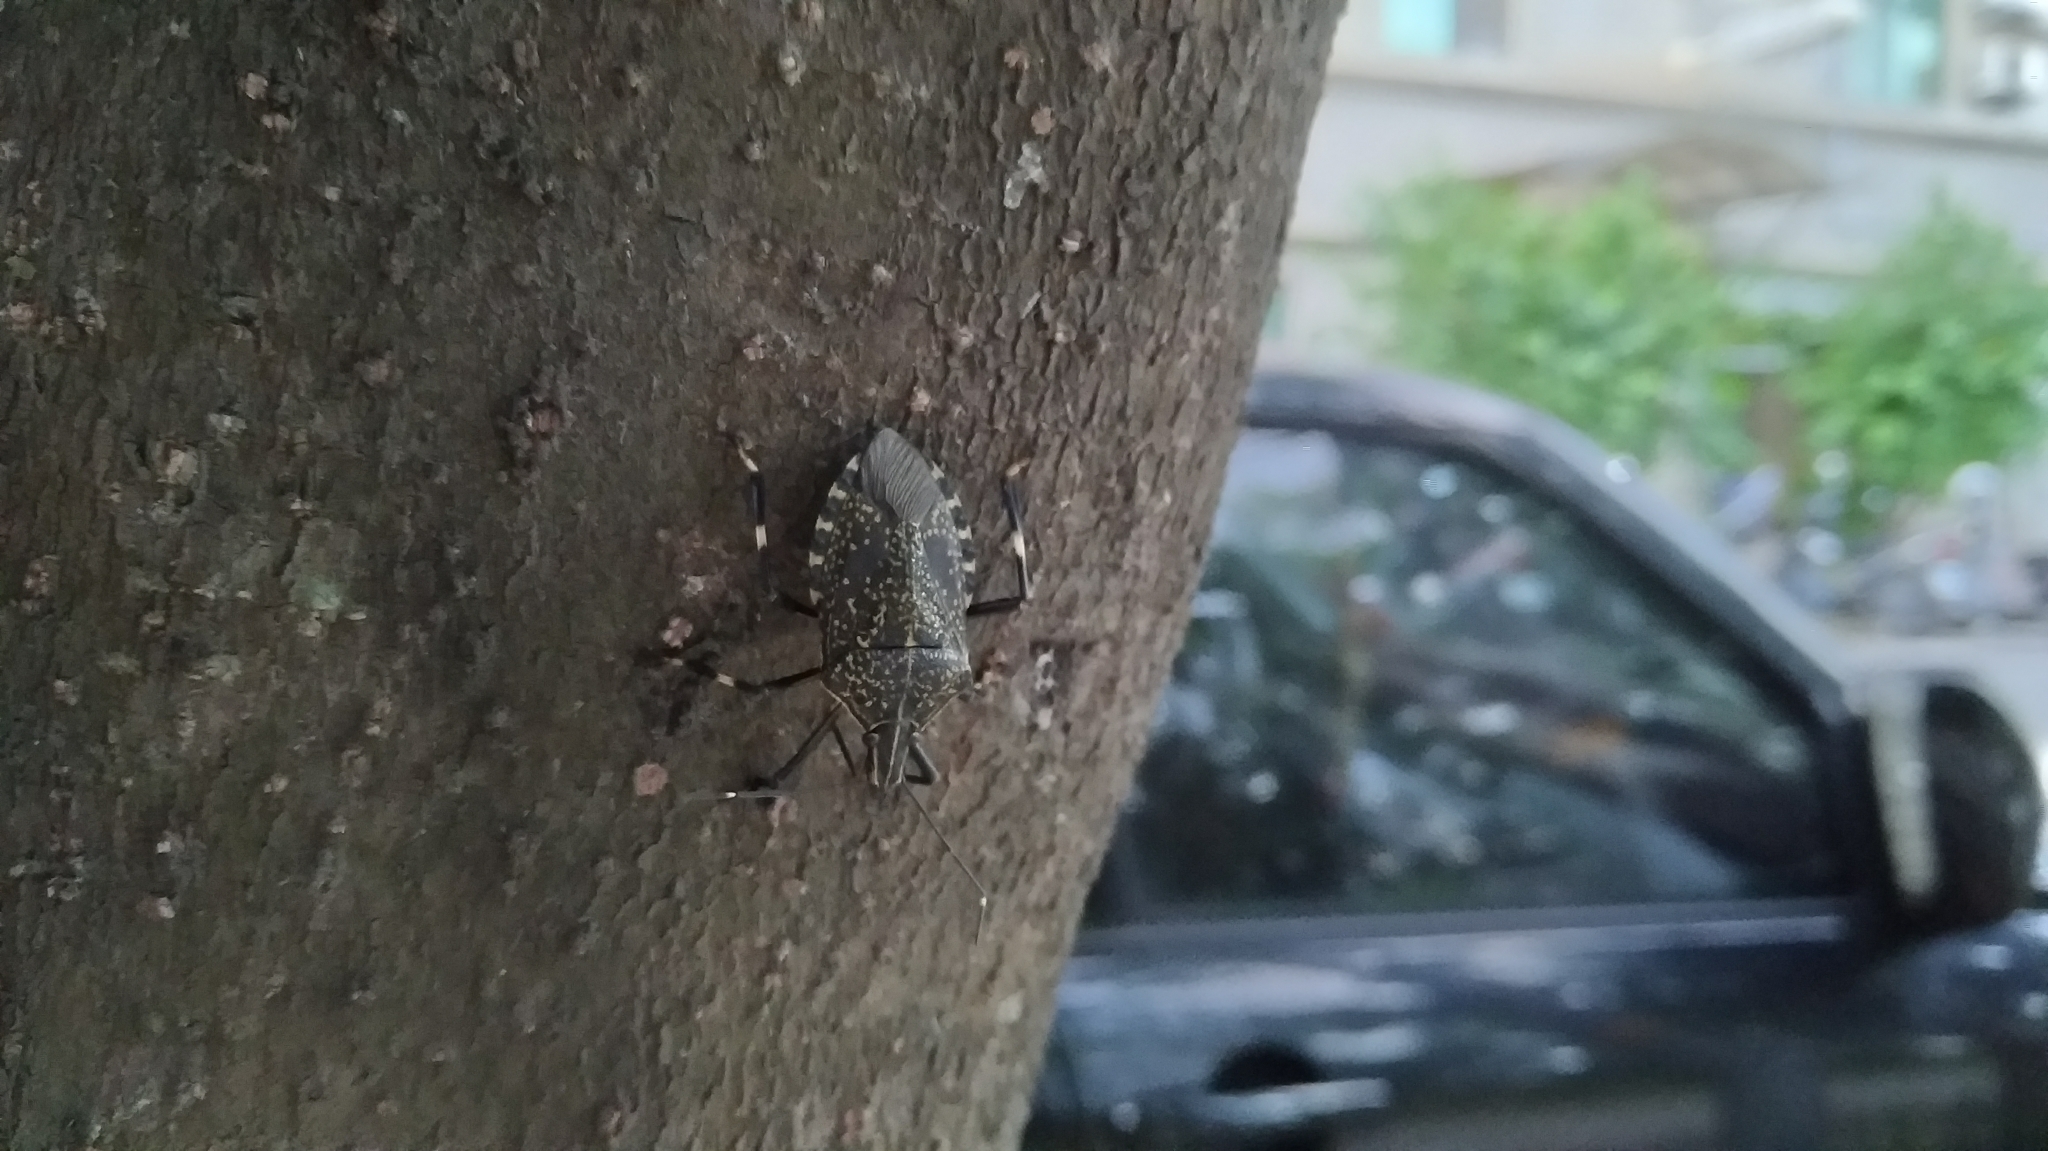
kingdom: Animalia
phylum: Arthropoda
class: Insecta
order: Hemiptera
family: Pentatomidae
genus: Erthesina
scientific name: Erthesina fullo
